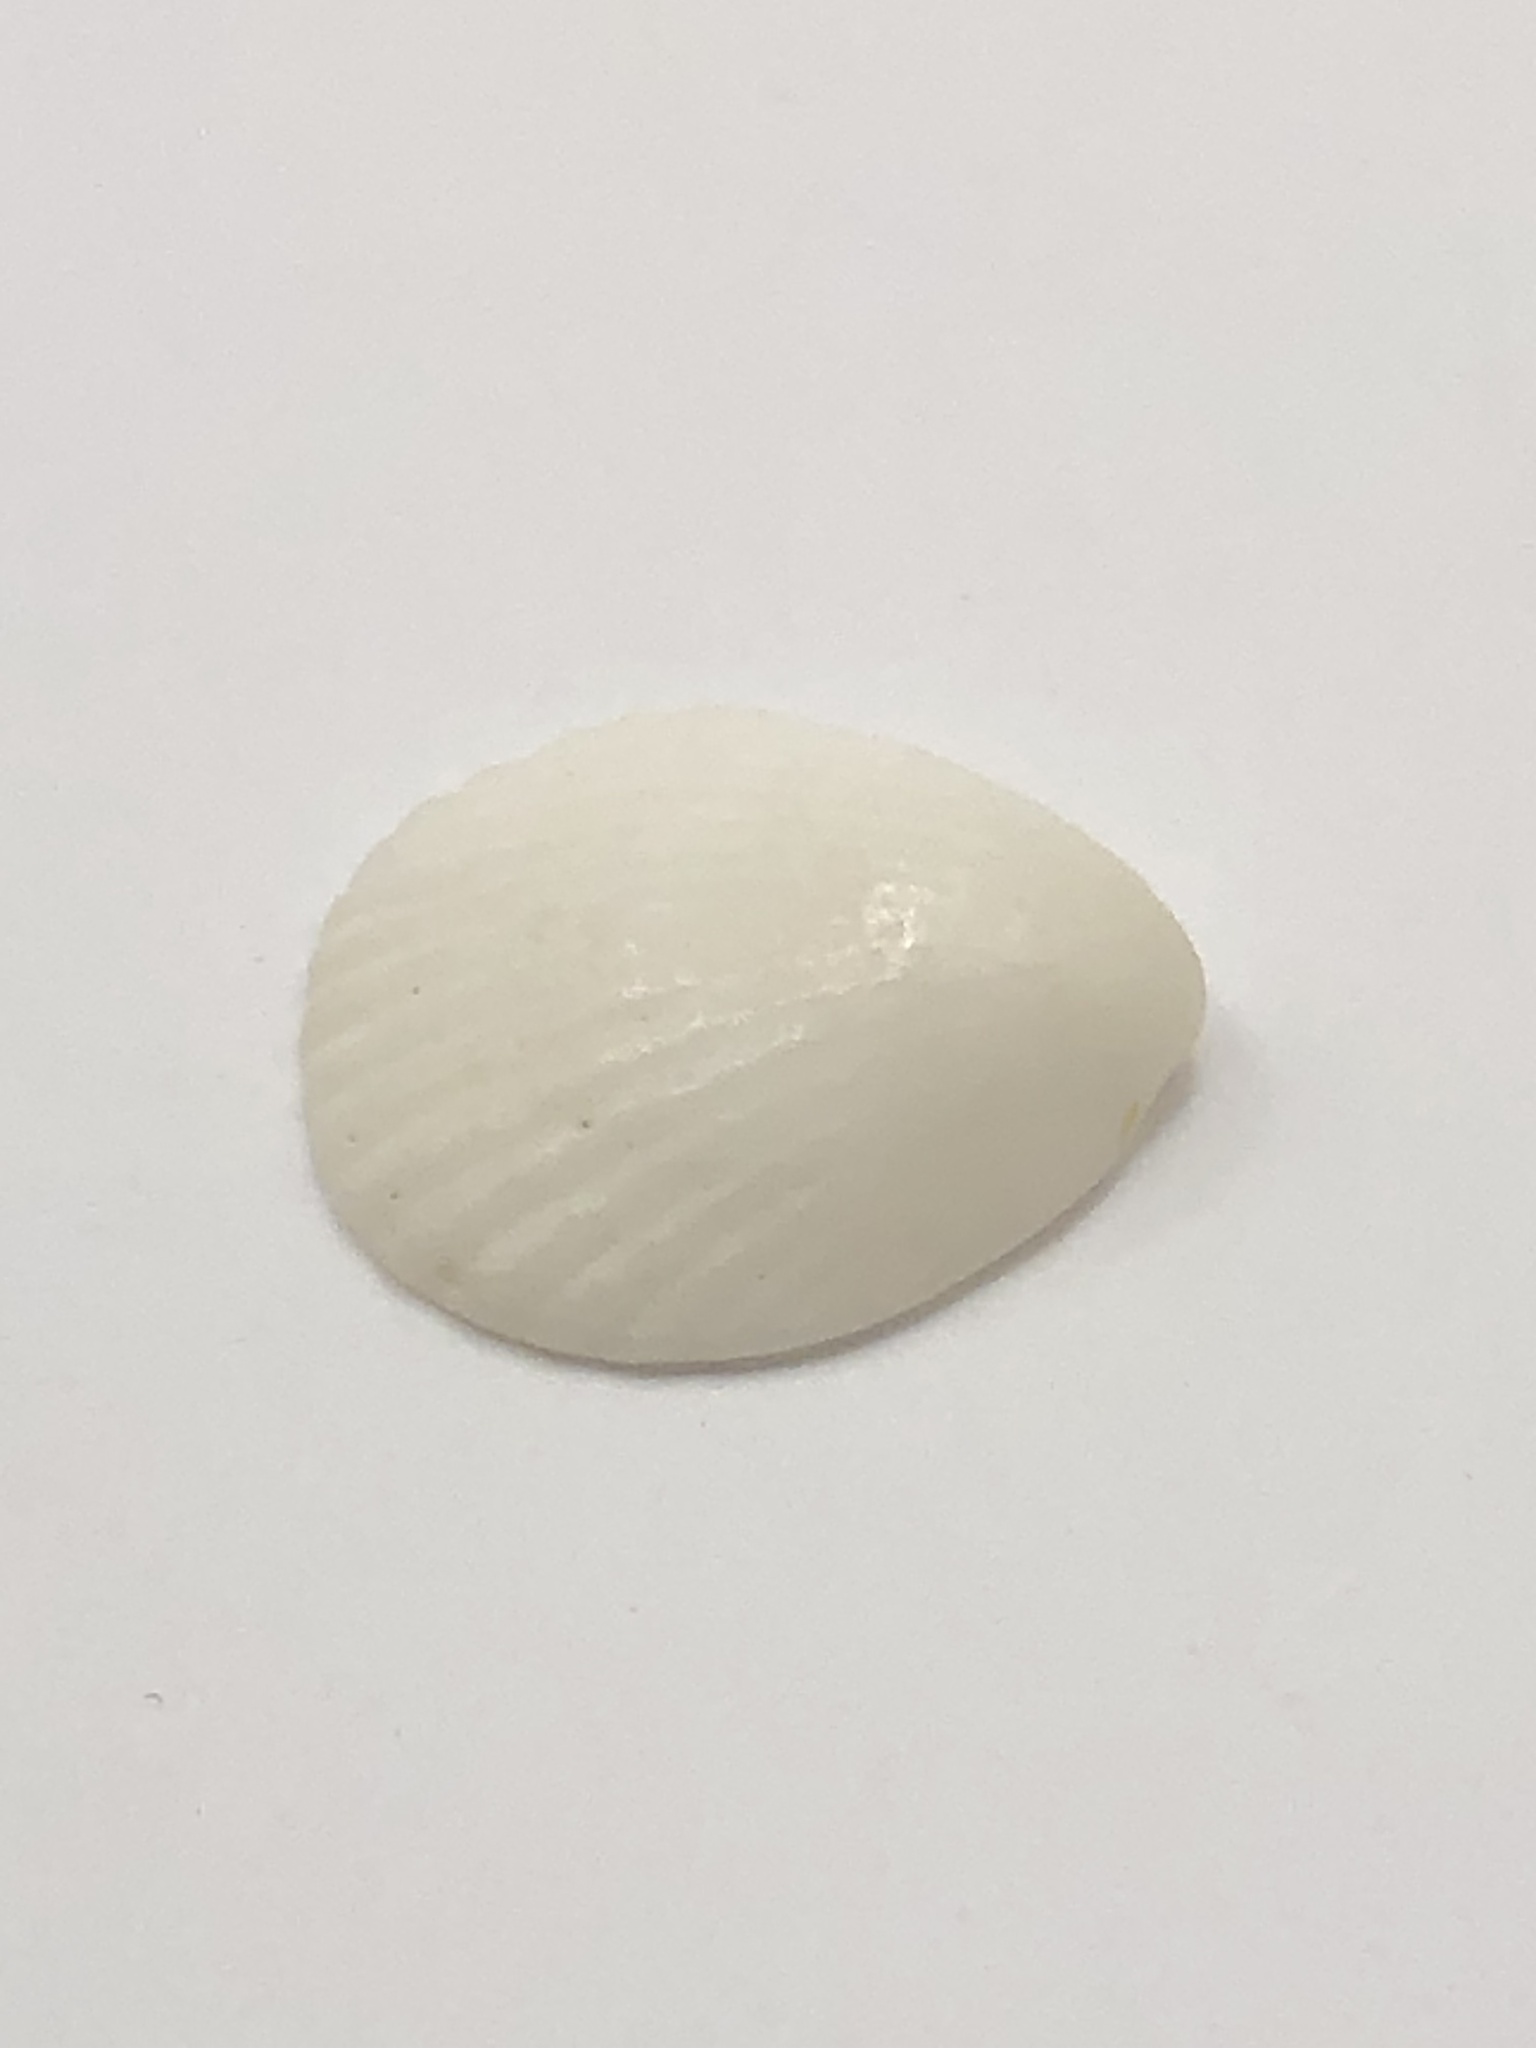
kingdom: Animalia
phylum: Mollusca
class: Bivalvia
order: Arcida
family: Glycymerididae
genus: Tucetona
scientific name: Tucetona pectinata
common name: Comb bittersweet
